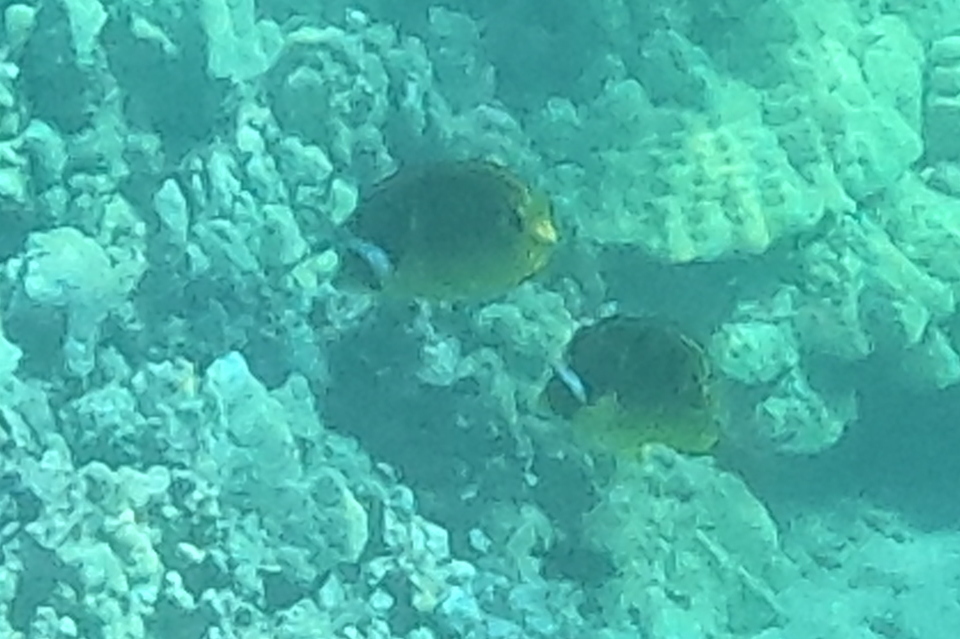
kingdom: Animalia
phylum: Chordata
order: Perciformes
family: Chaetodontidae
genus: Chaetodon
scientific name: Chaetodon lunula
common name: Raccoon butterflyfish
